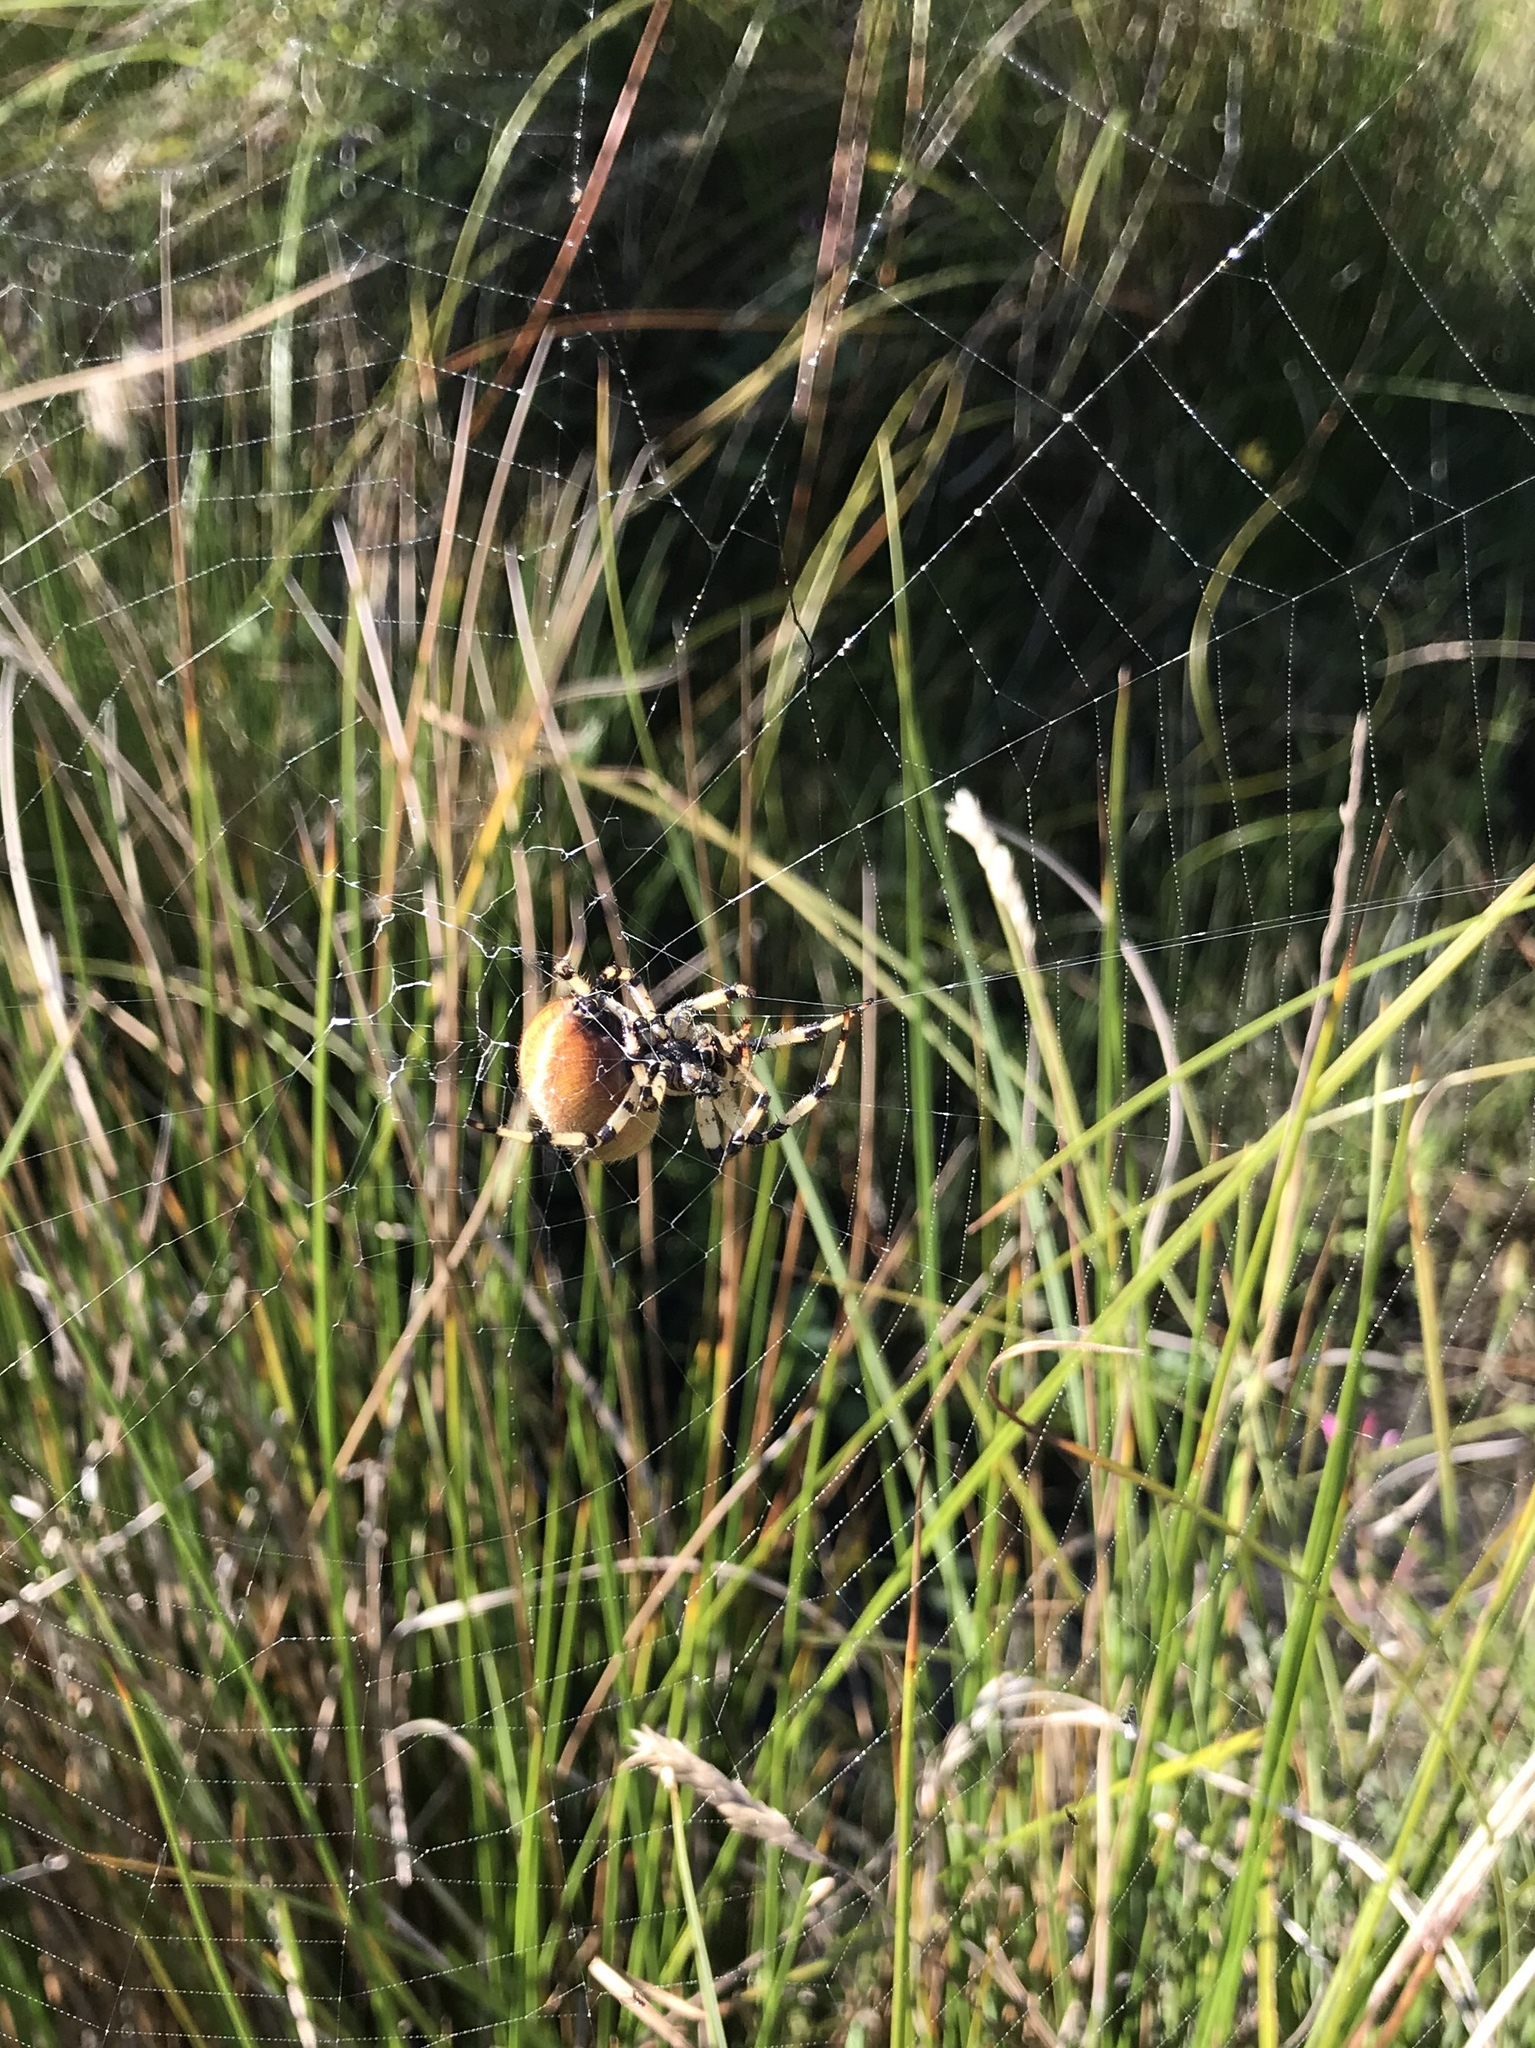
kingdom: Animalia
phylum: Arthropoda
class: Arachnida
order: Araneae
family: Araneidae
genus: Araneus
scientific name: Araneus trifolium
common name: Shamrock orbweaver
